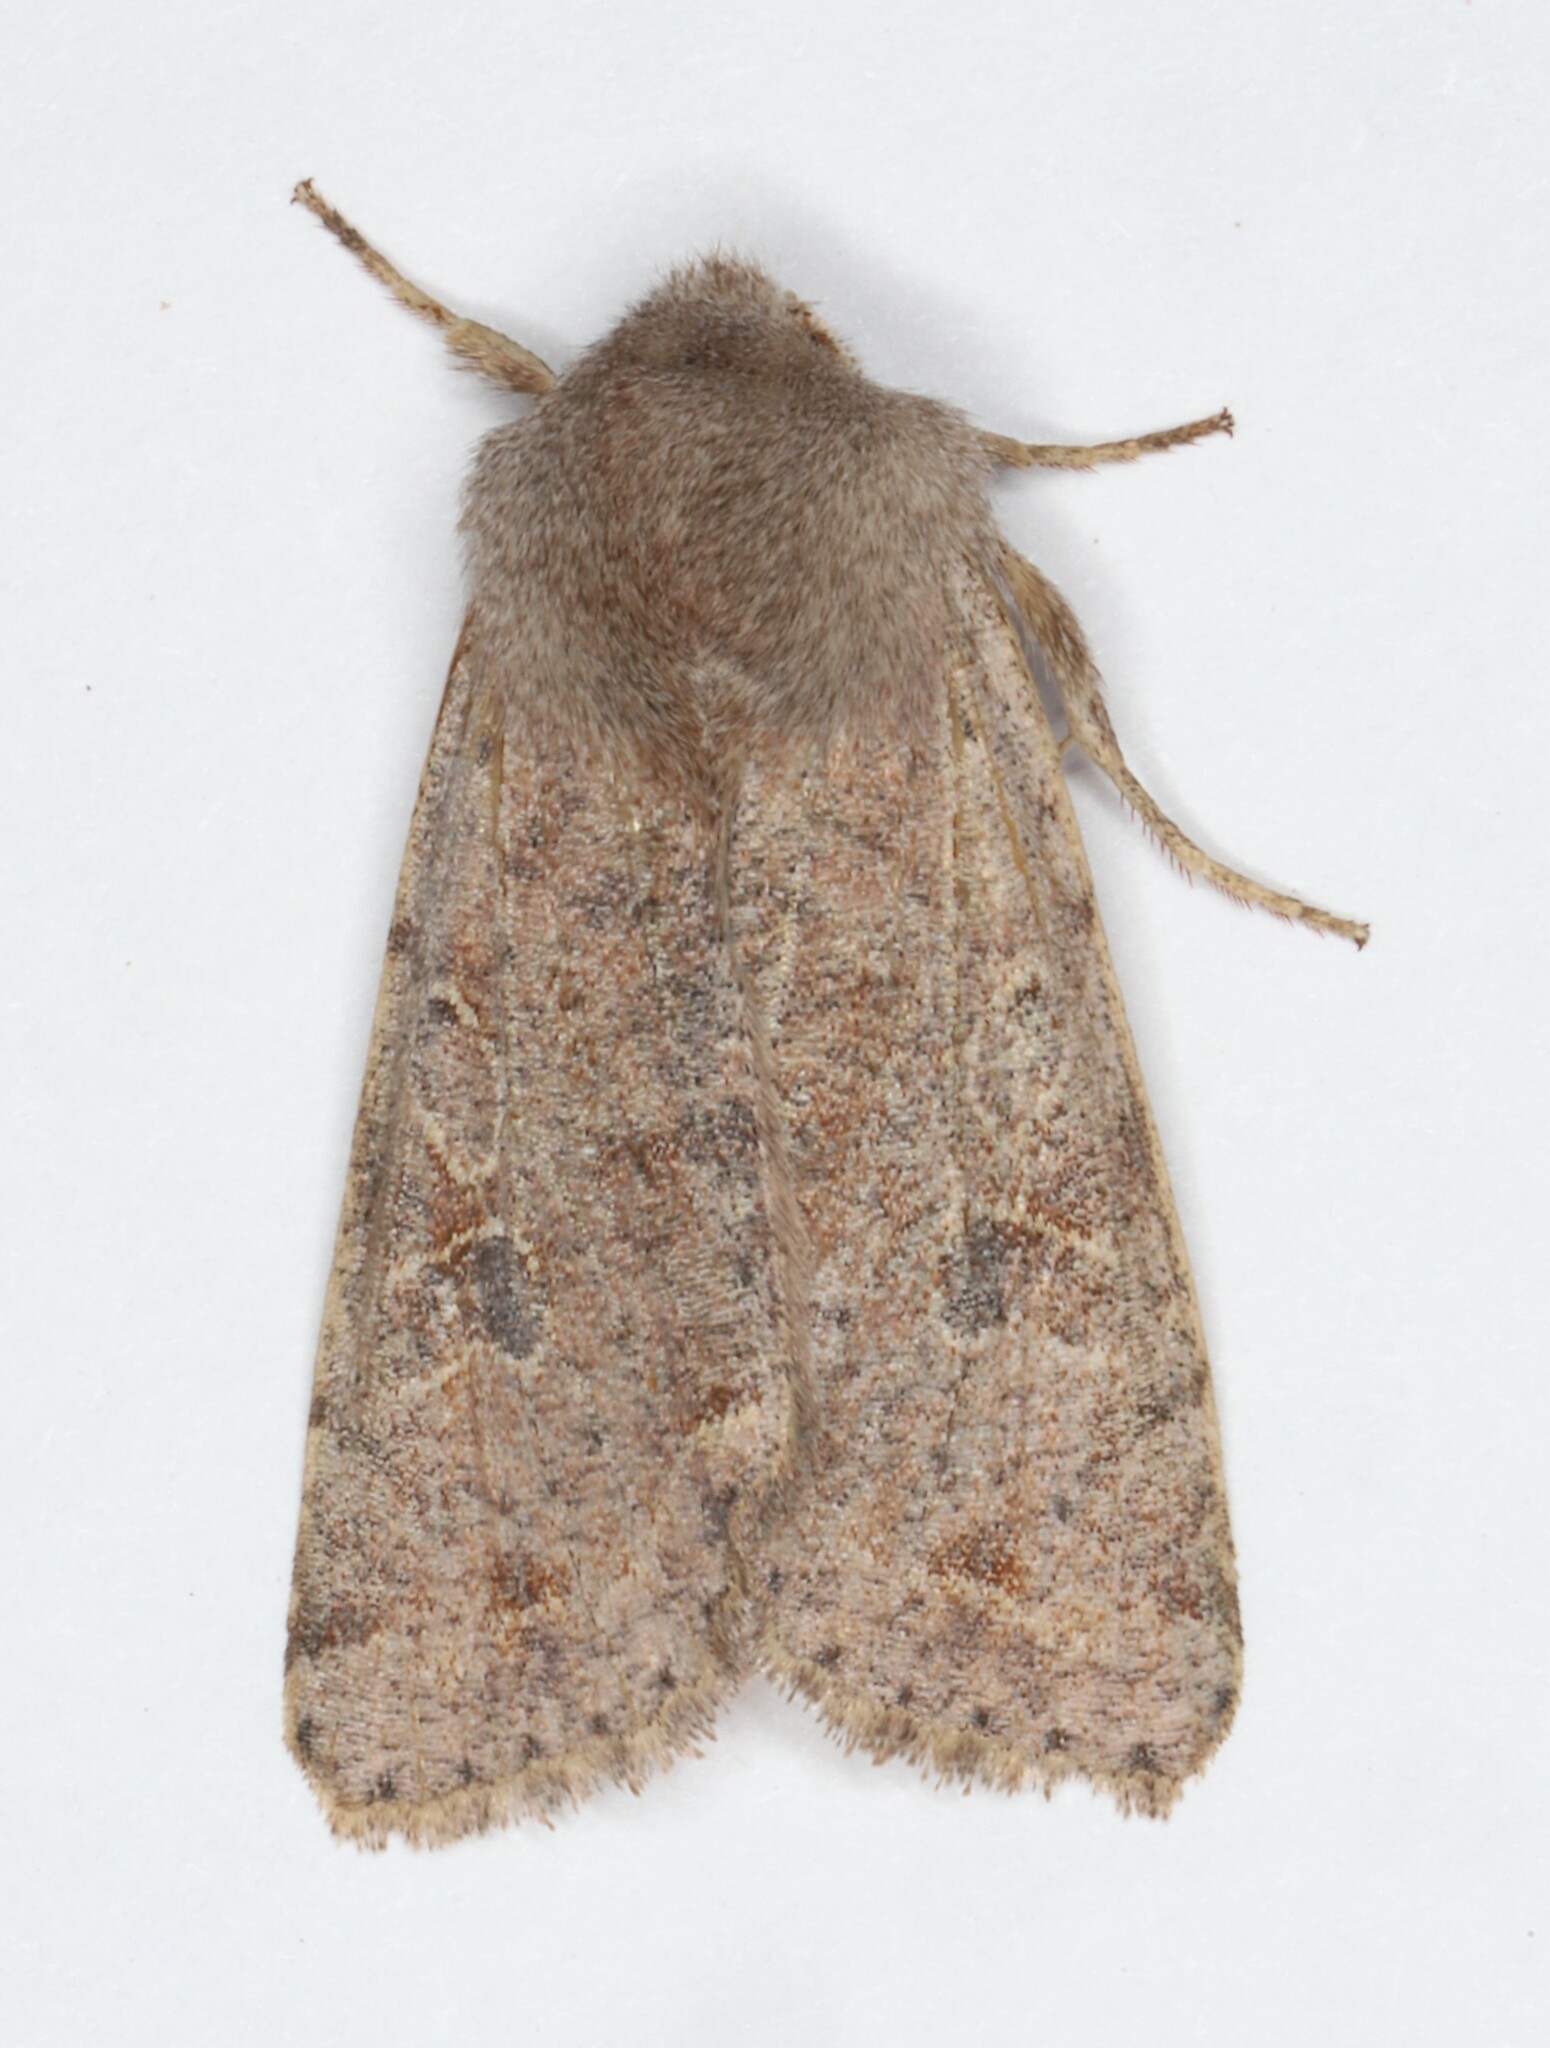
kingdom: Animalia
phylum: Arthropoda
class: Insecta
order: Lepidoptera
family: Noctuidae
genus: Orthosia
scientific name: Orthosia hibisci
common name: Green fruitworm
